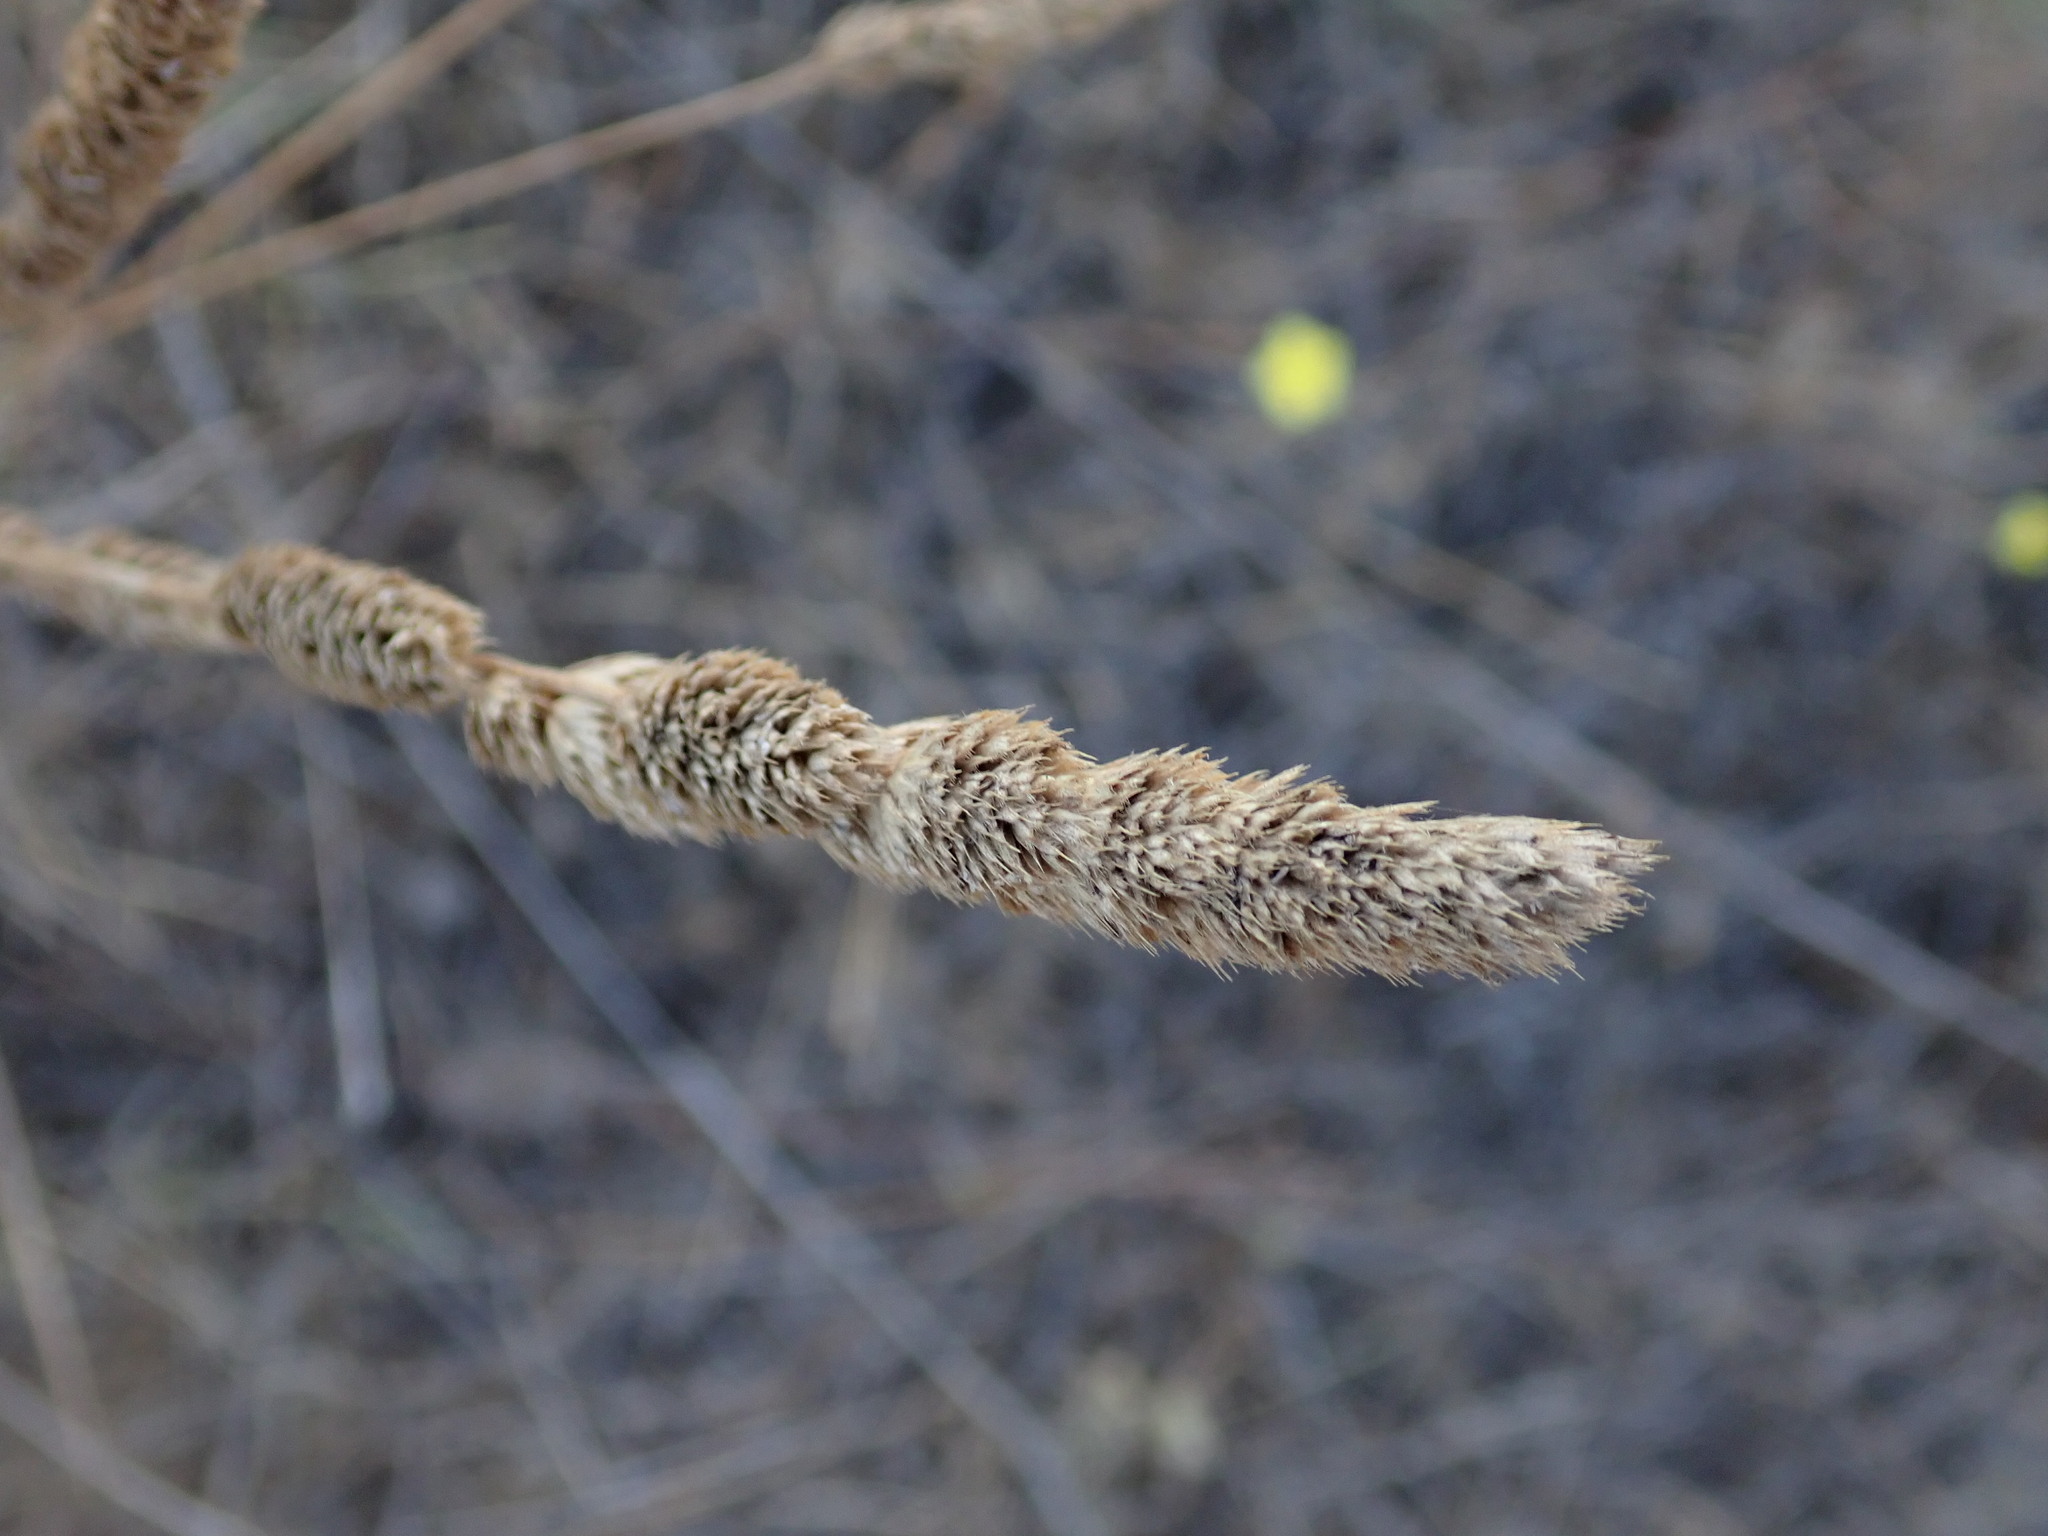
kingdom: Plantae
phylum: Tracheophyta
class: Liliopsida
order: Poales
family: Poaceae
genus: Dactylis
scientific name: Dactylis glomerata
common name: Orchardgrass
